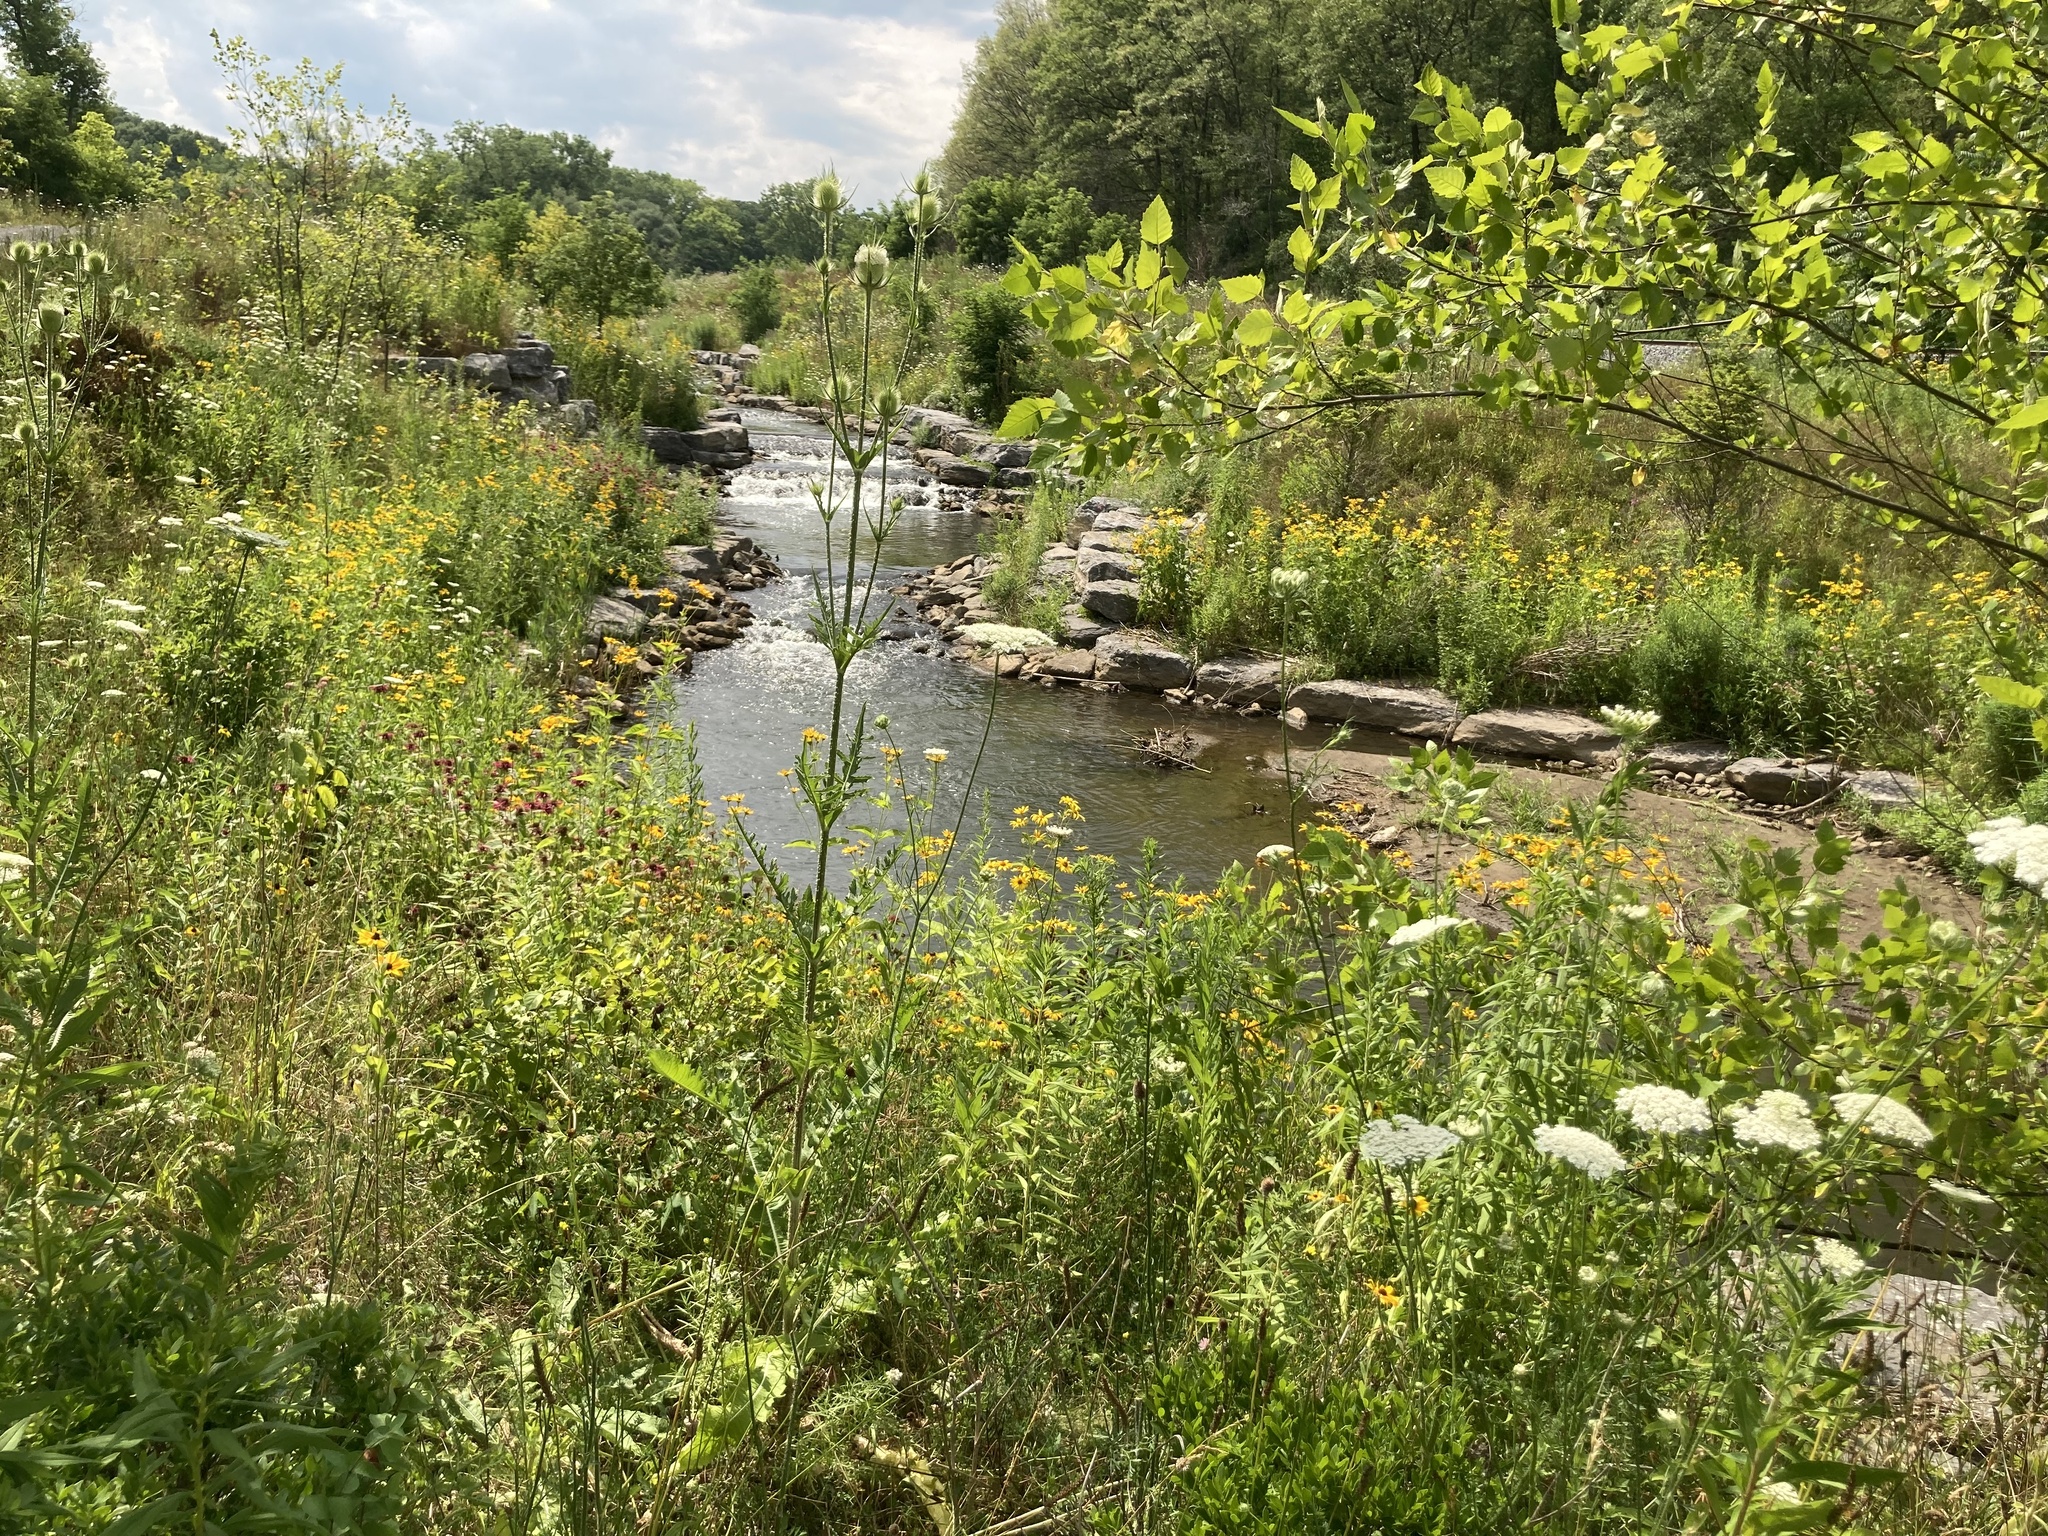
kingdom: Plantae
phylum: Tracheophyta
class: Magnoliopsida
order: Dipsacales
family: Caprifoliaceae
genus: Dipsacus
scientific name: Dipsacus laciniatus
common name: Cut-leaved teasel
